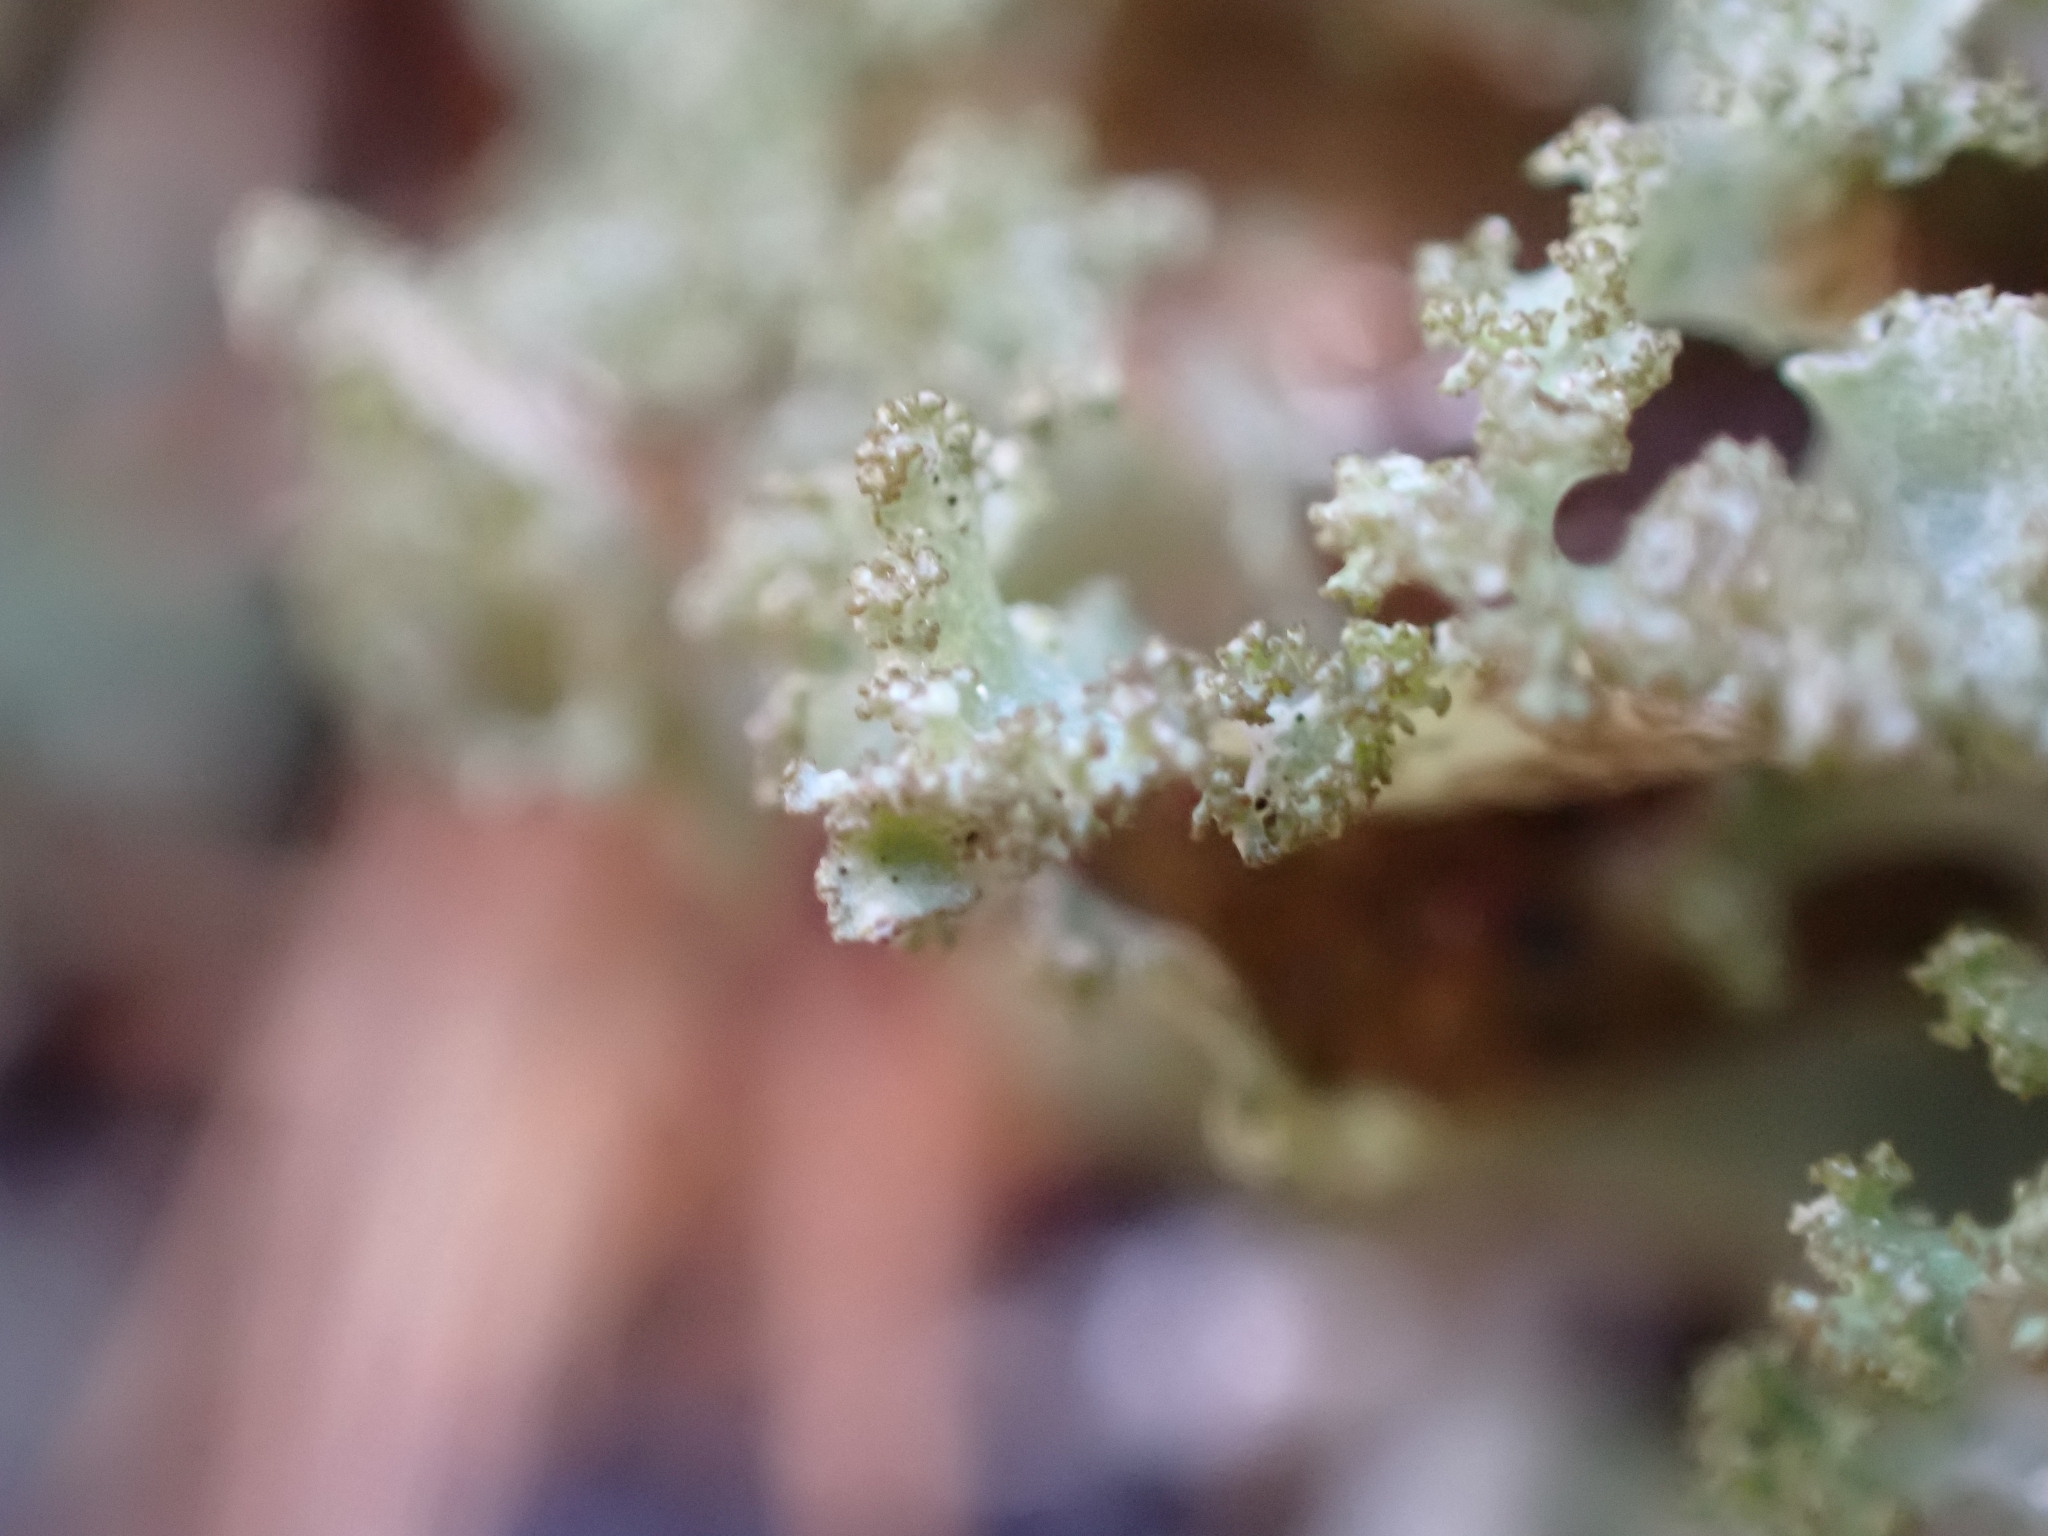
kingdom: Fungi
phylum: Ascomycota
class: Lecanoromycetes
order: Lecanorales
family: Parmeliaceae
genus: Platismatia
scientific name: Platismatia glauca
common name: Varied rag lichen
